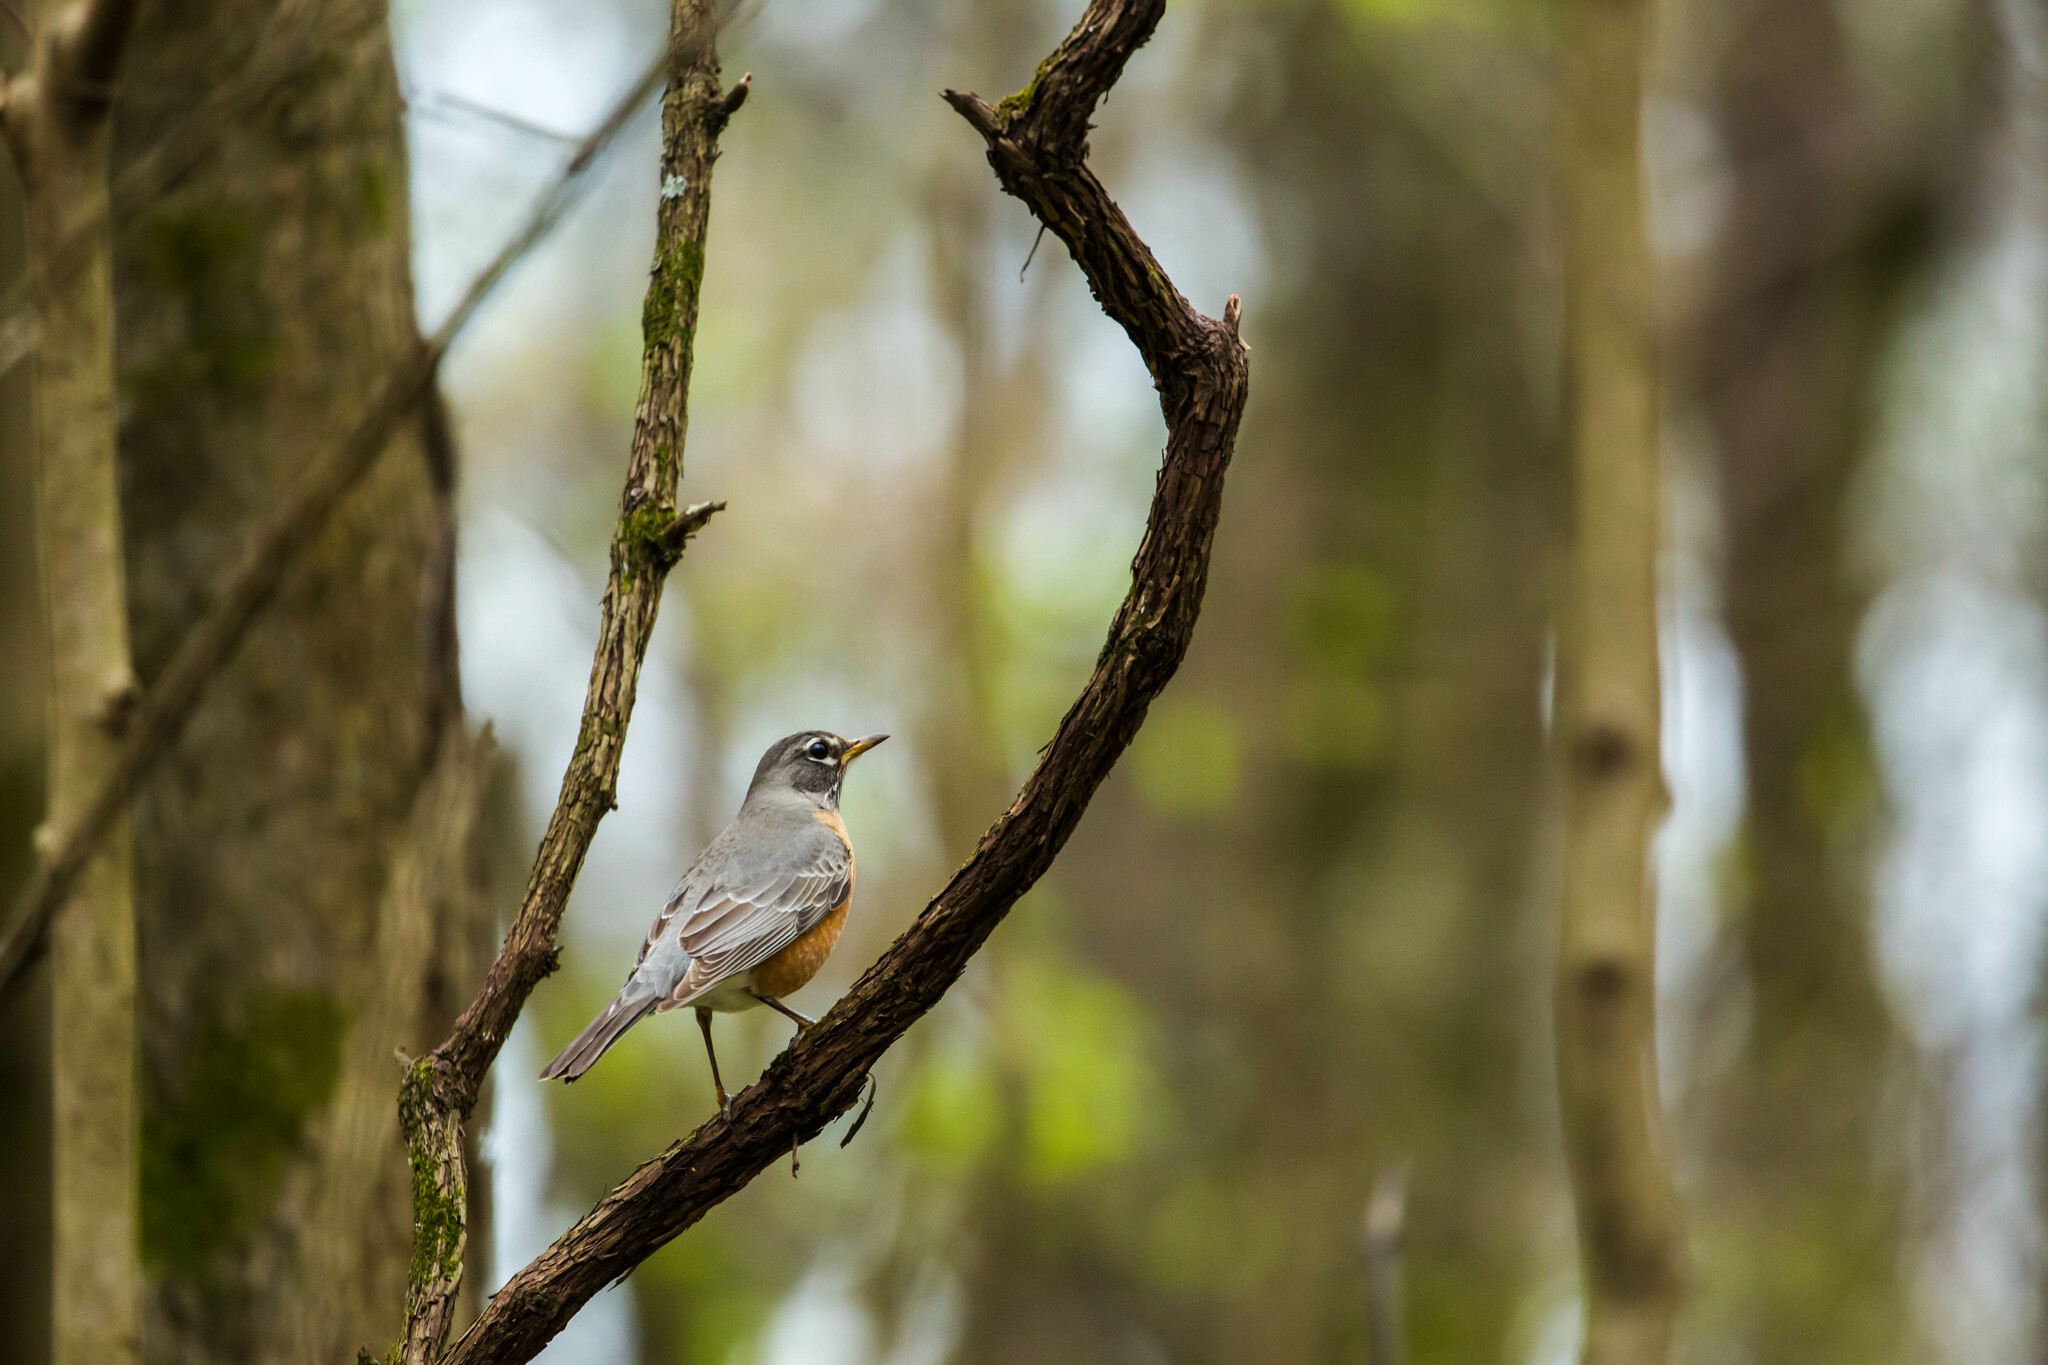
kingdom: Animalia
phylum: Chordata
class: Aves
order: Passeriformes
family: Turdidae
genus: Turdus
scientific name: Turdus migratorius
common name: American robin
